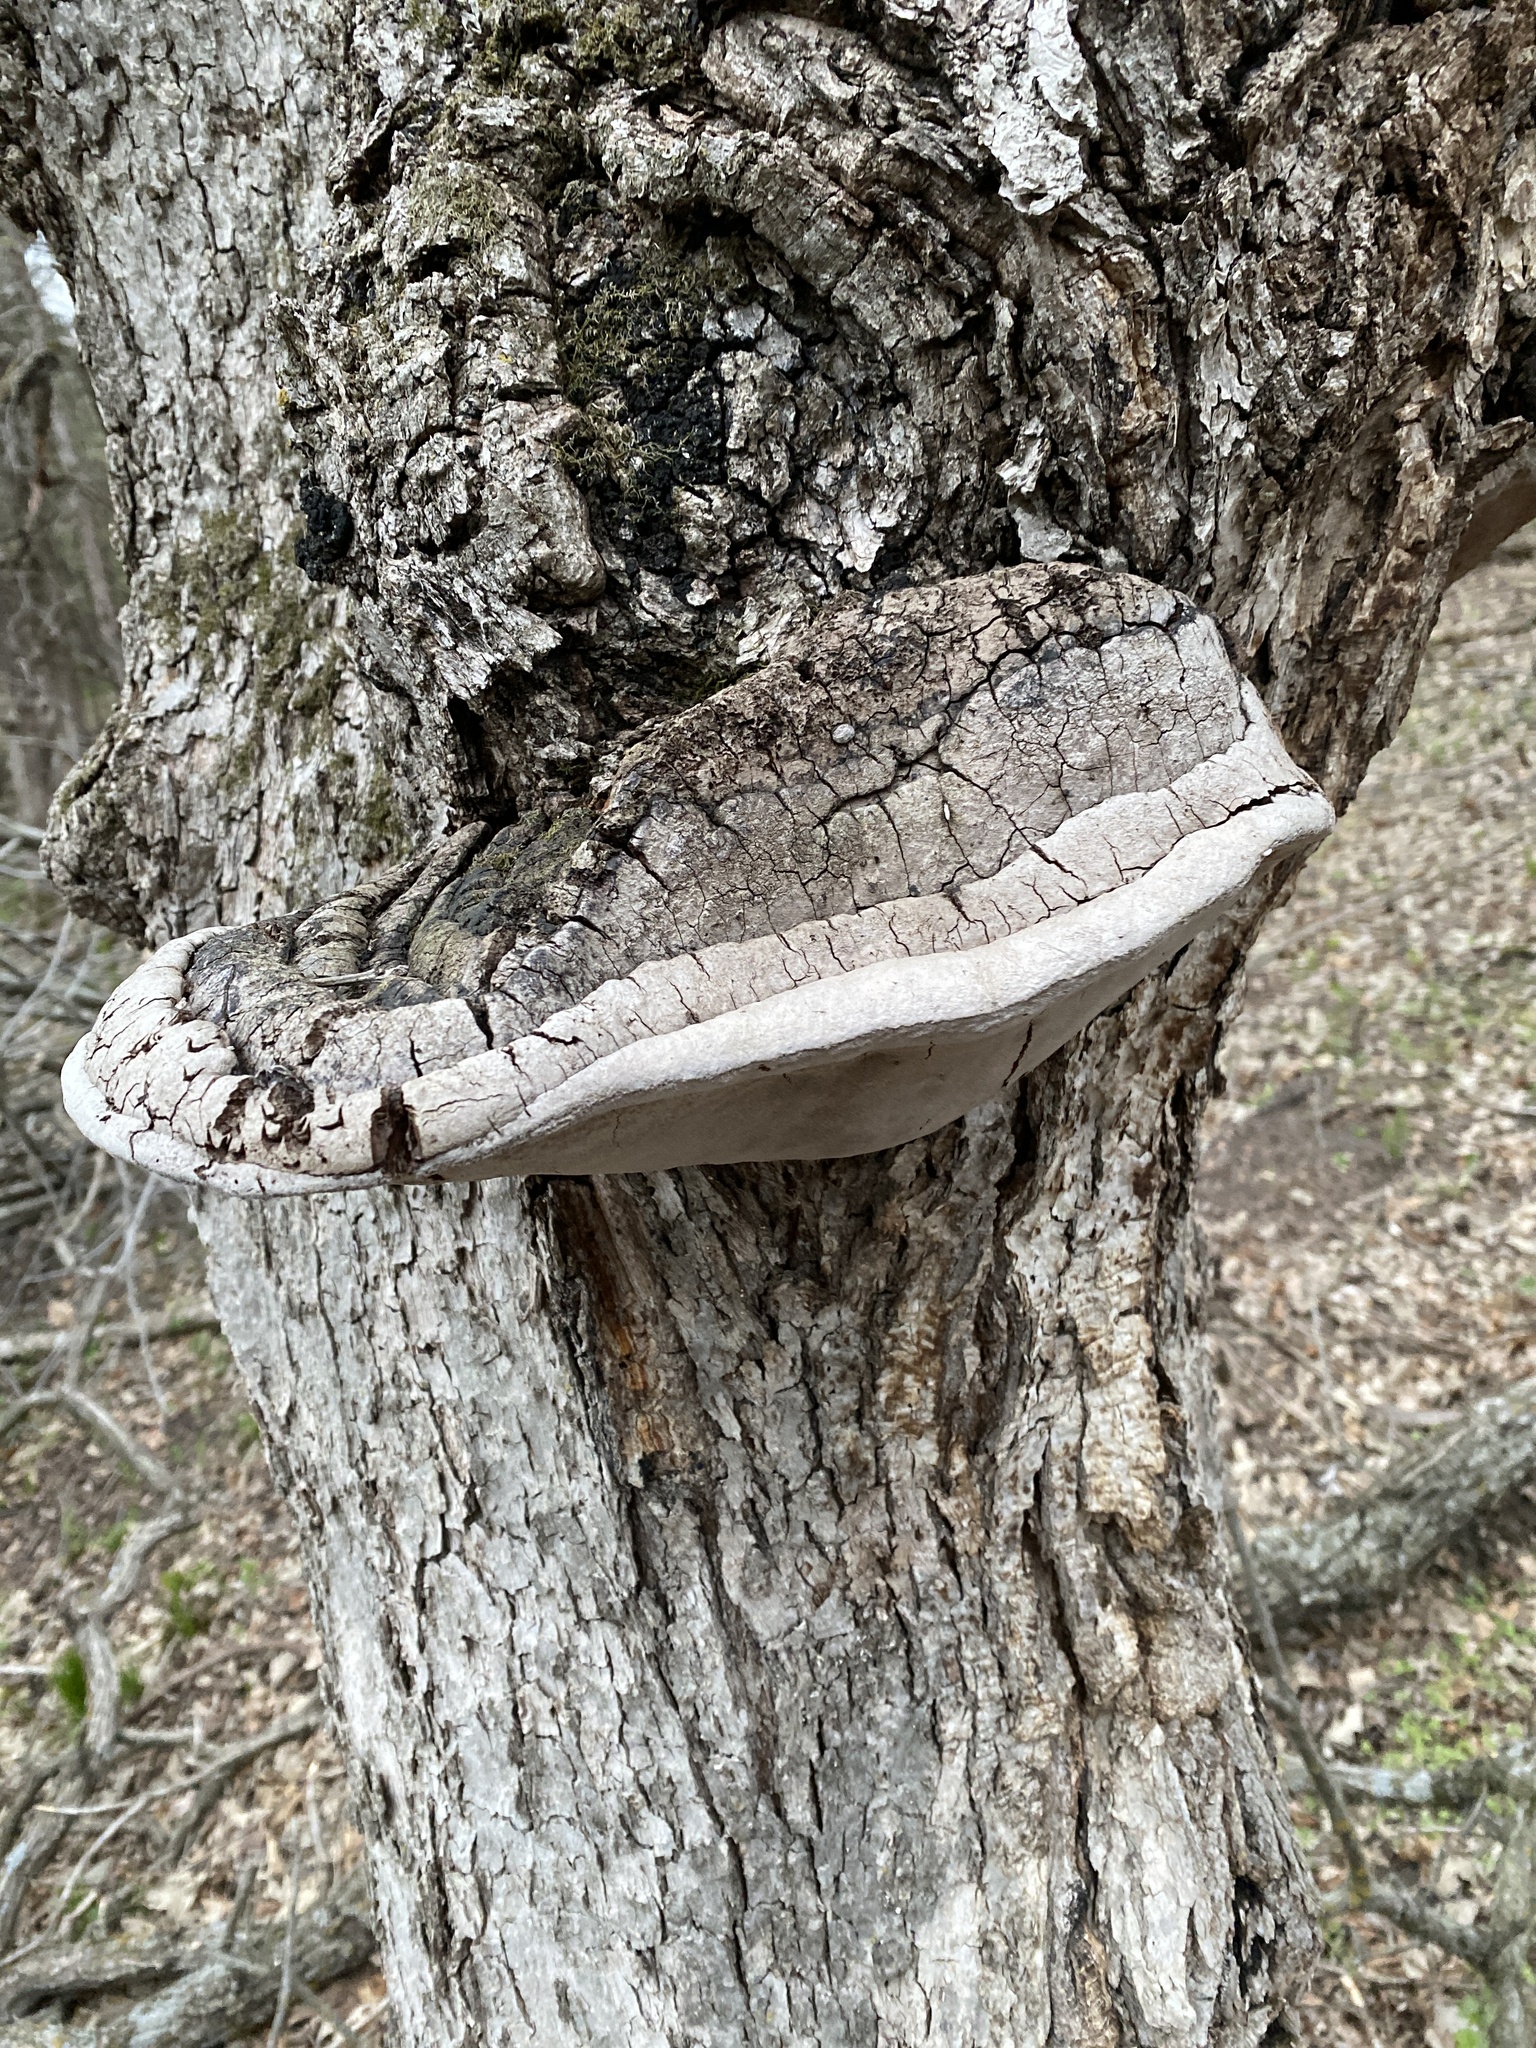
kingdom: Fungi
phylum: Basidiomycota
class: Agaricomycetes
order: Hymenochaetales
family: Hymenochaetaceae
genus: Phellinus
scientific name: Phellinus tremulae
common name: Aspen bracket
